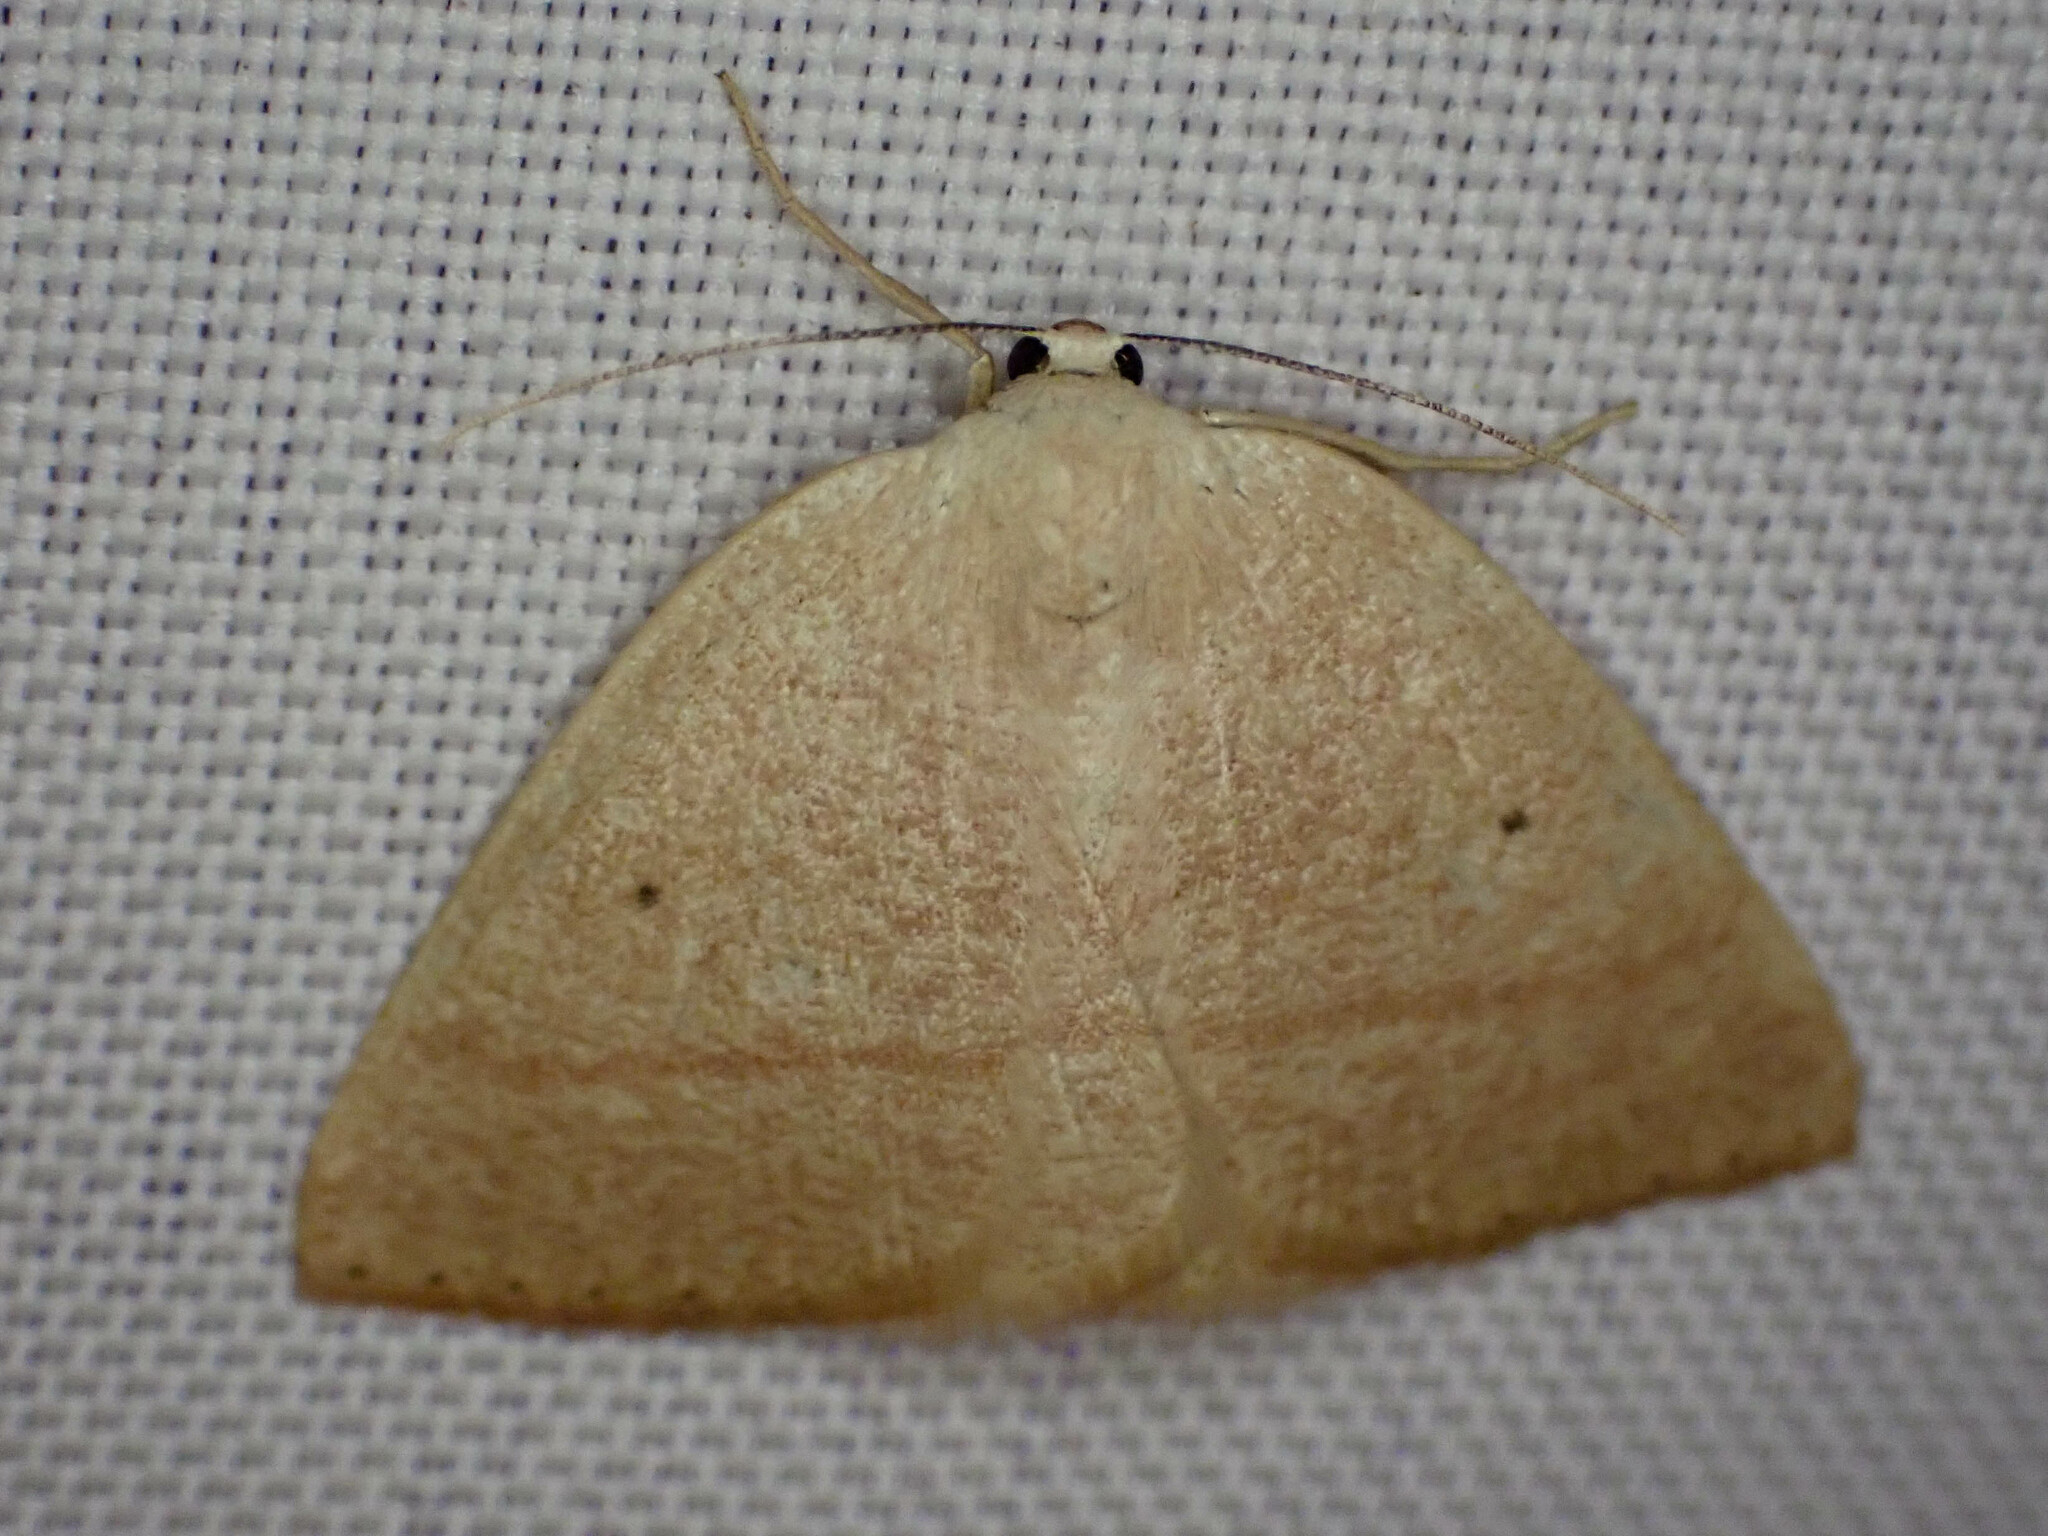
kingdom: Animalia
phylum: Arthropoda
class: Insecta
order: Lepidoptera
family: Geometridae
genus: Eudrepanulatrix
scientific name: Eudrepanulatrix rectifascia
